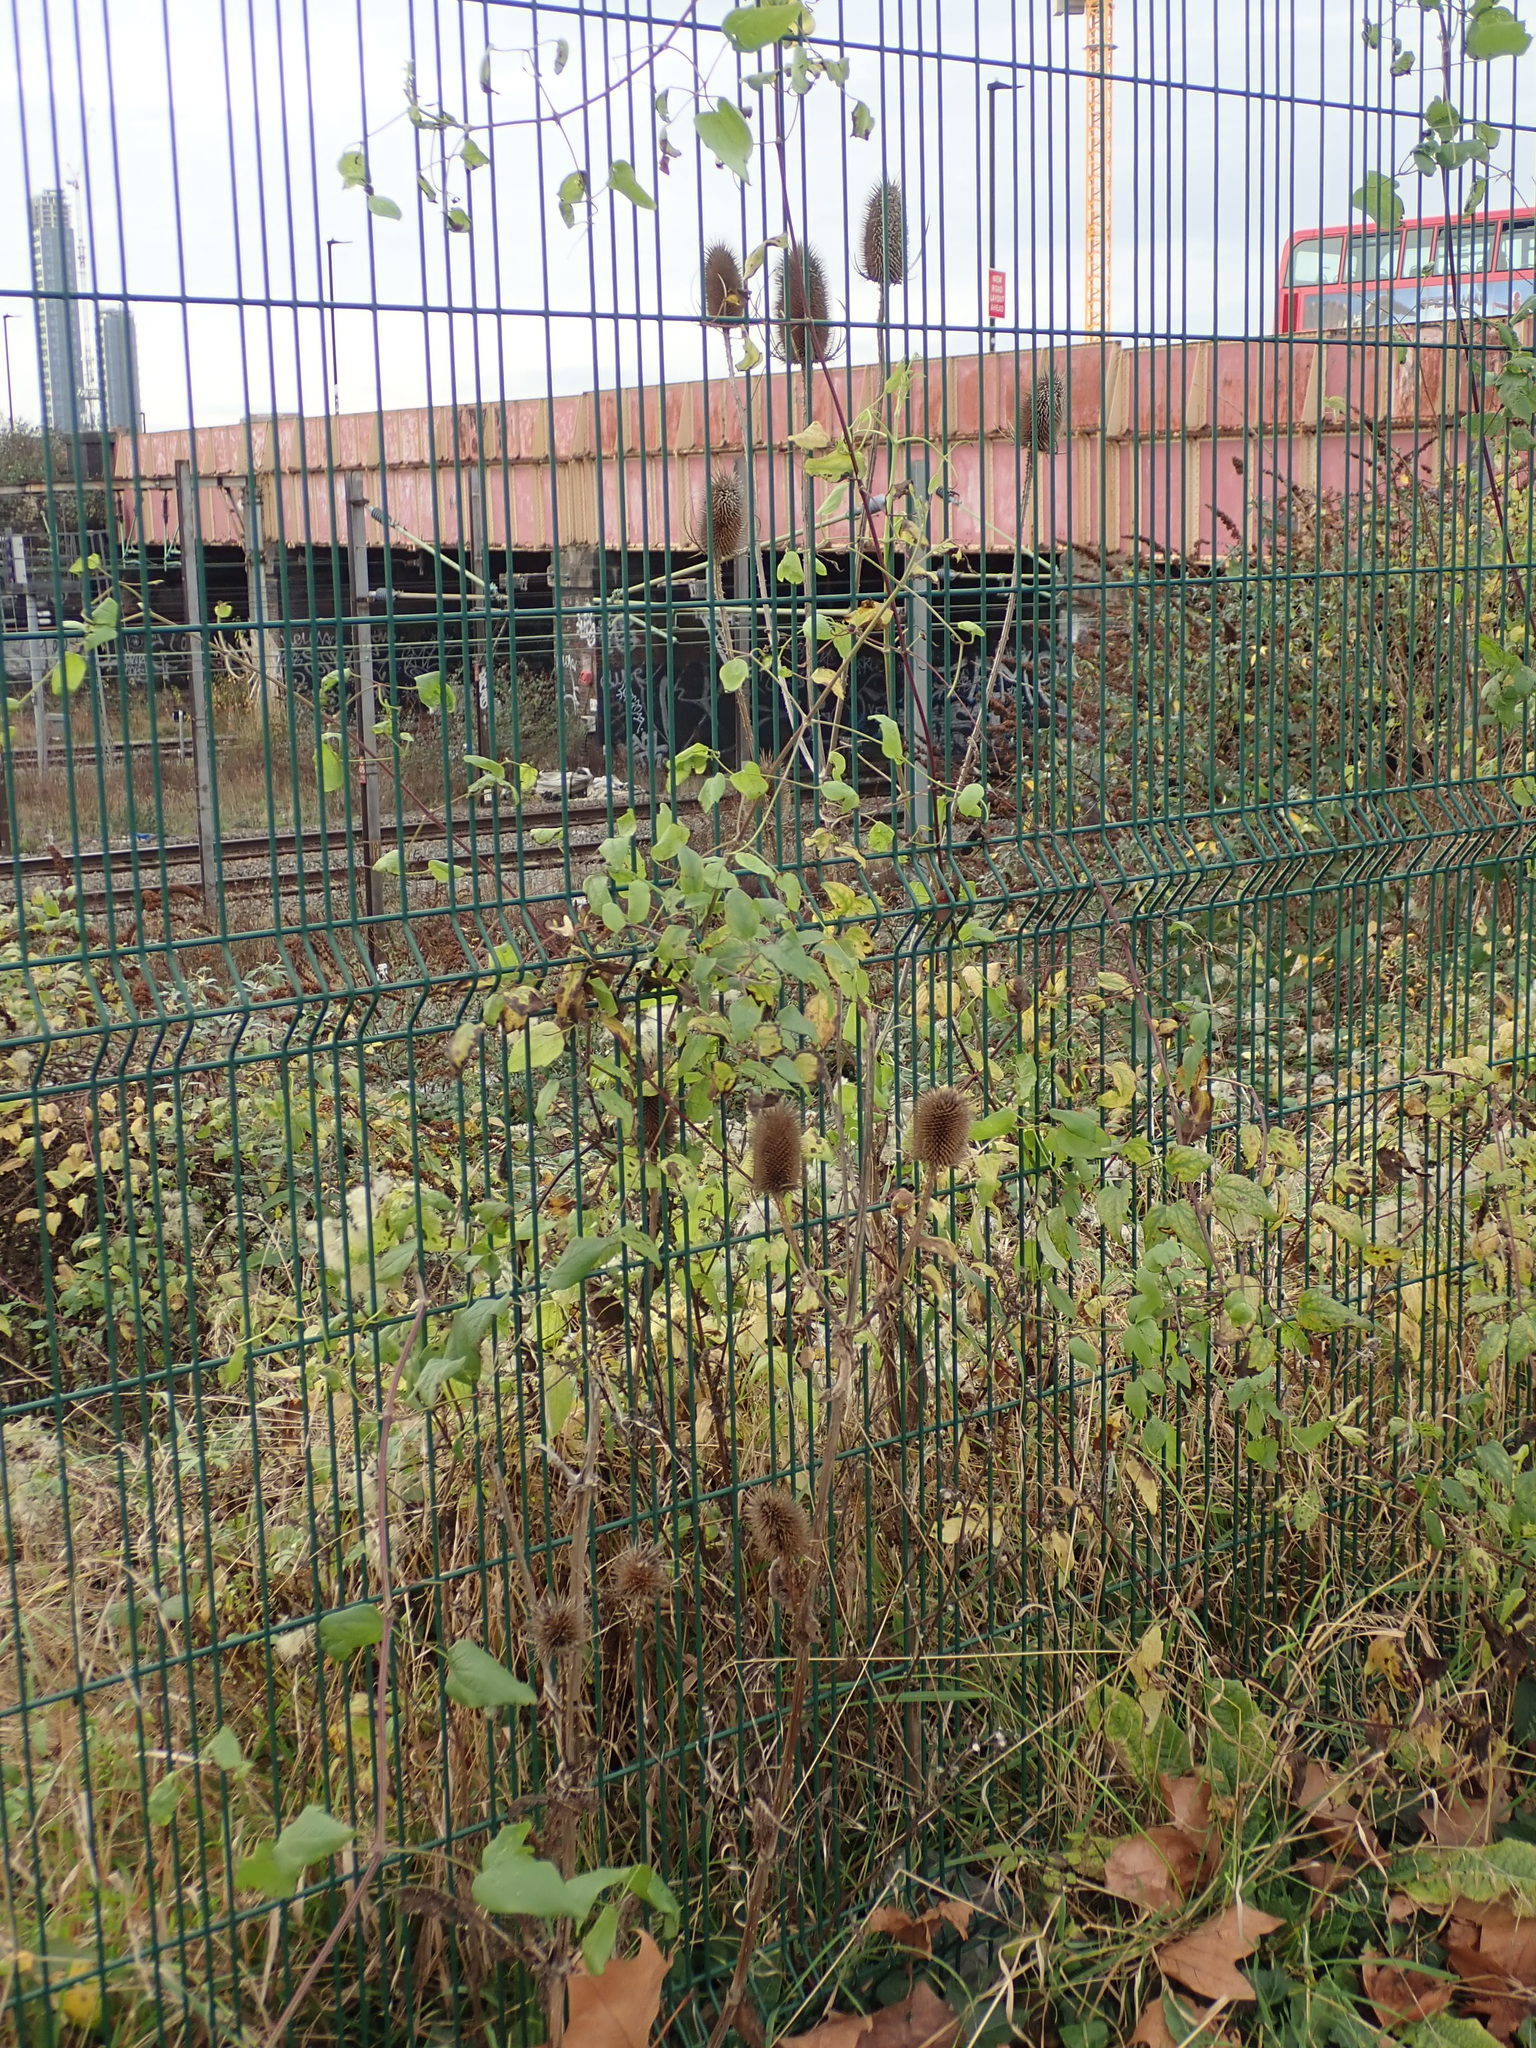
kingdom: Plantae
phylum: Tracheophyta
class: Magnoliopsida
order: Dipsacales
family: Caprifoliaceae
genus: Dipsacus
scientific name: Dipsacus fullonum
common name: Teasel
